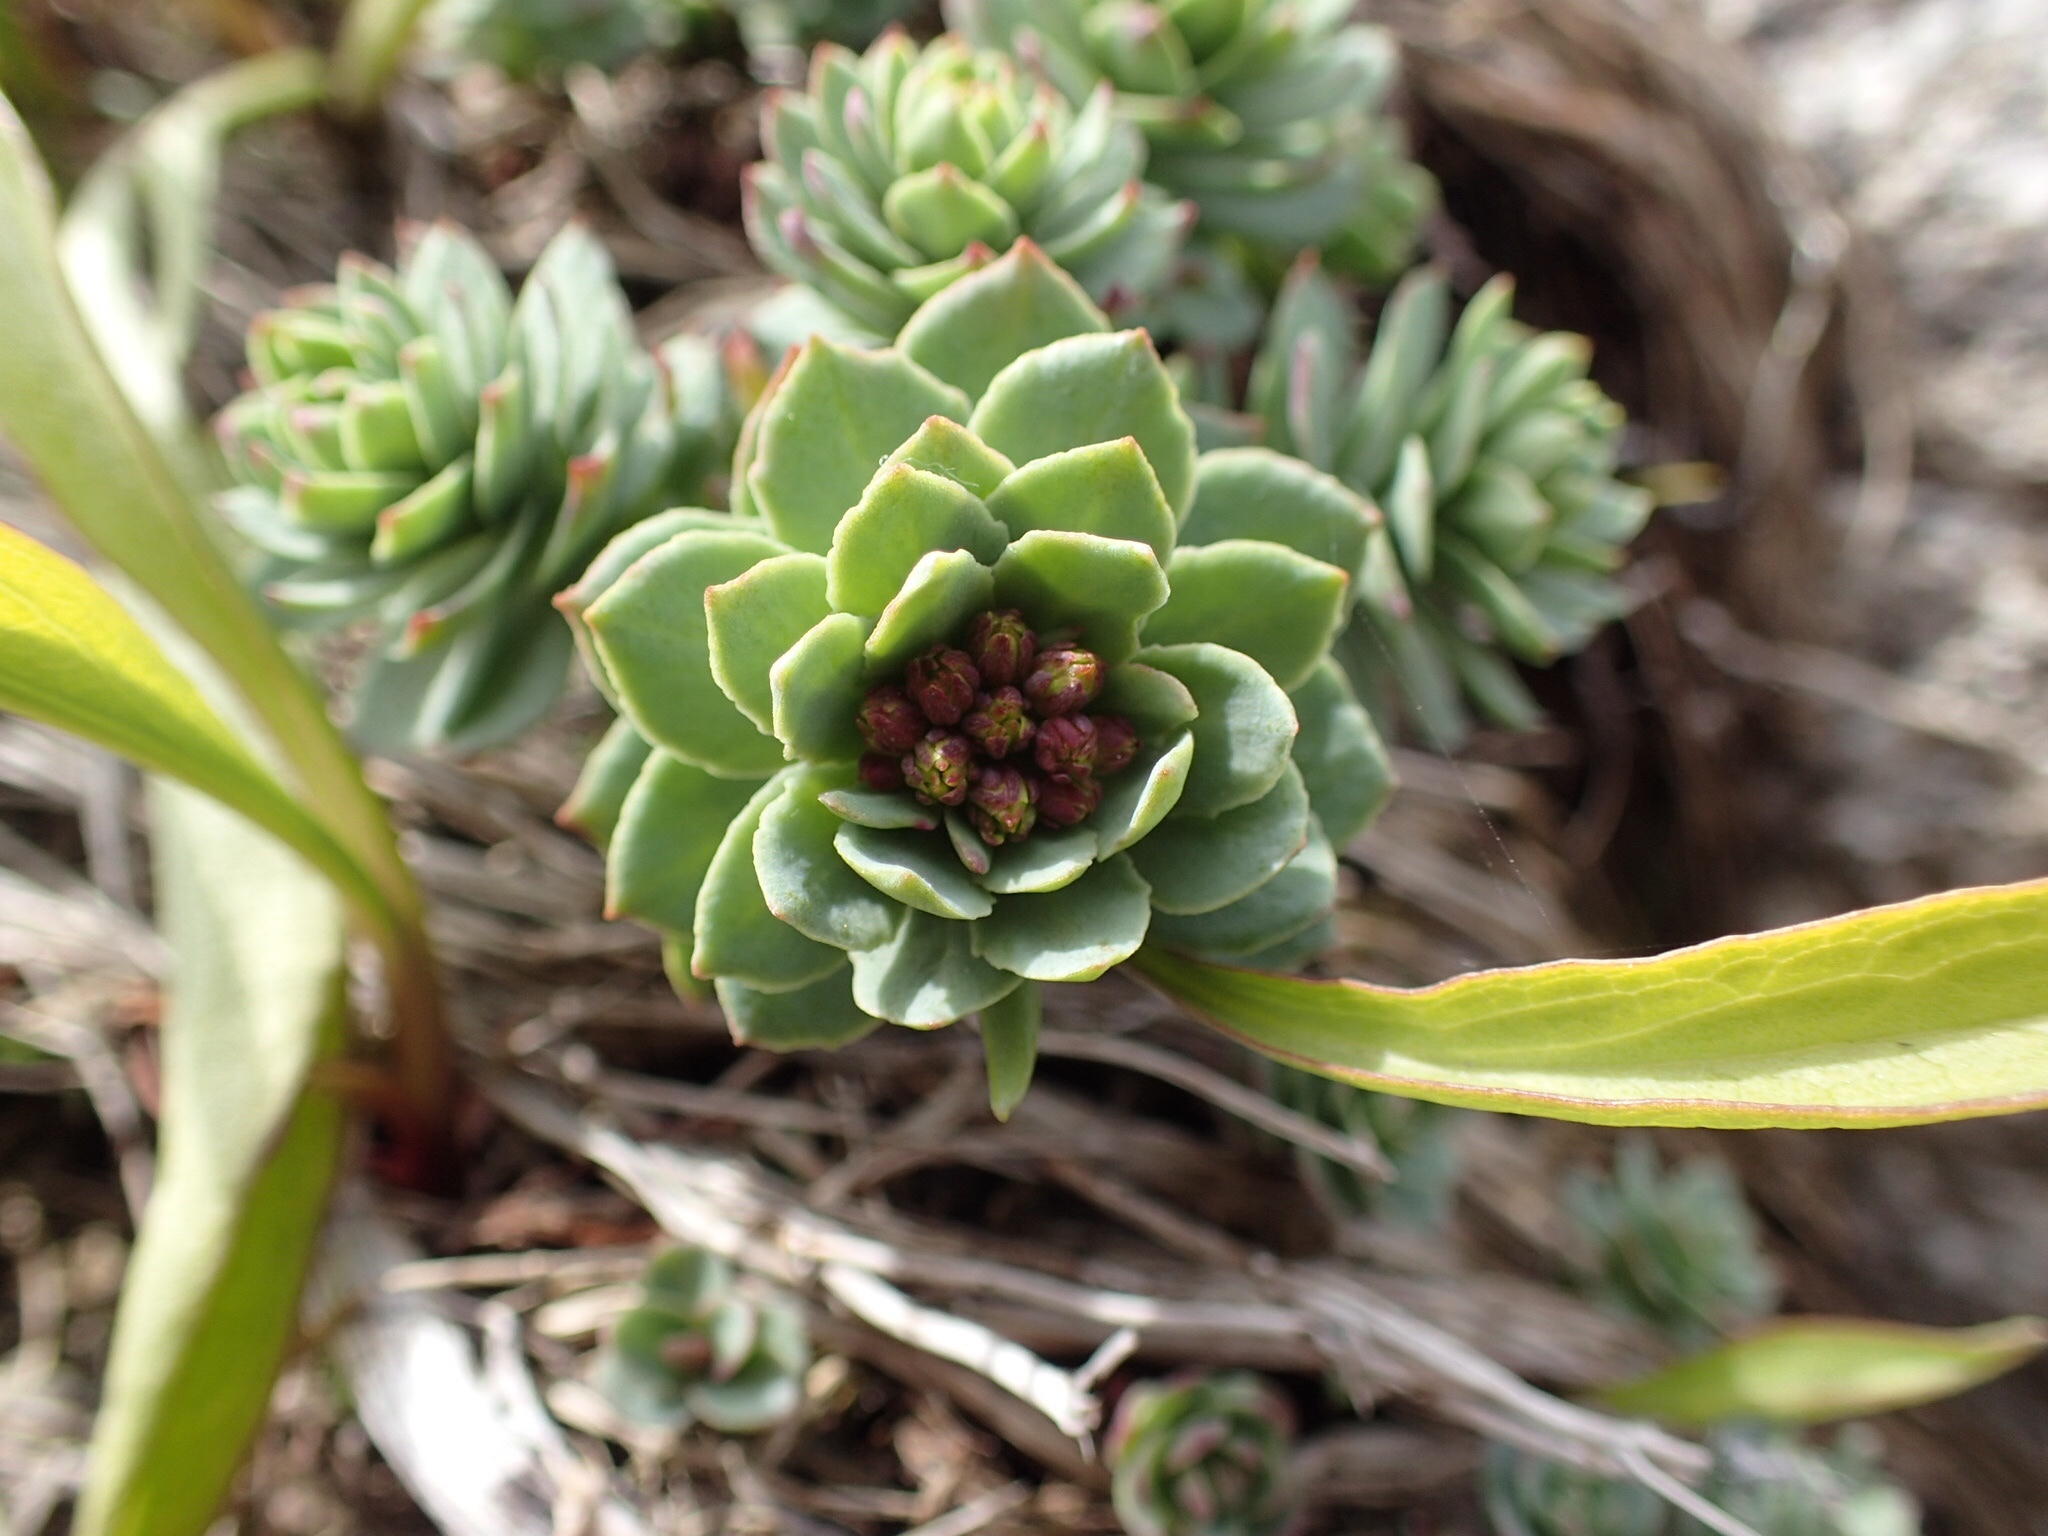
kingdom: Plantae
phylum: Tracheophyta
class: Magnoliopsida
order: Saxifragales
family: Crassulaceae
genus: Rhodiola
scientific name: Rhodiola rosea
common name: Roseroot
